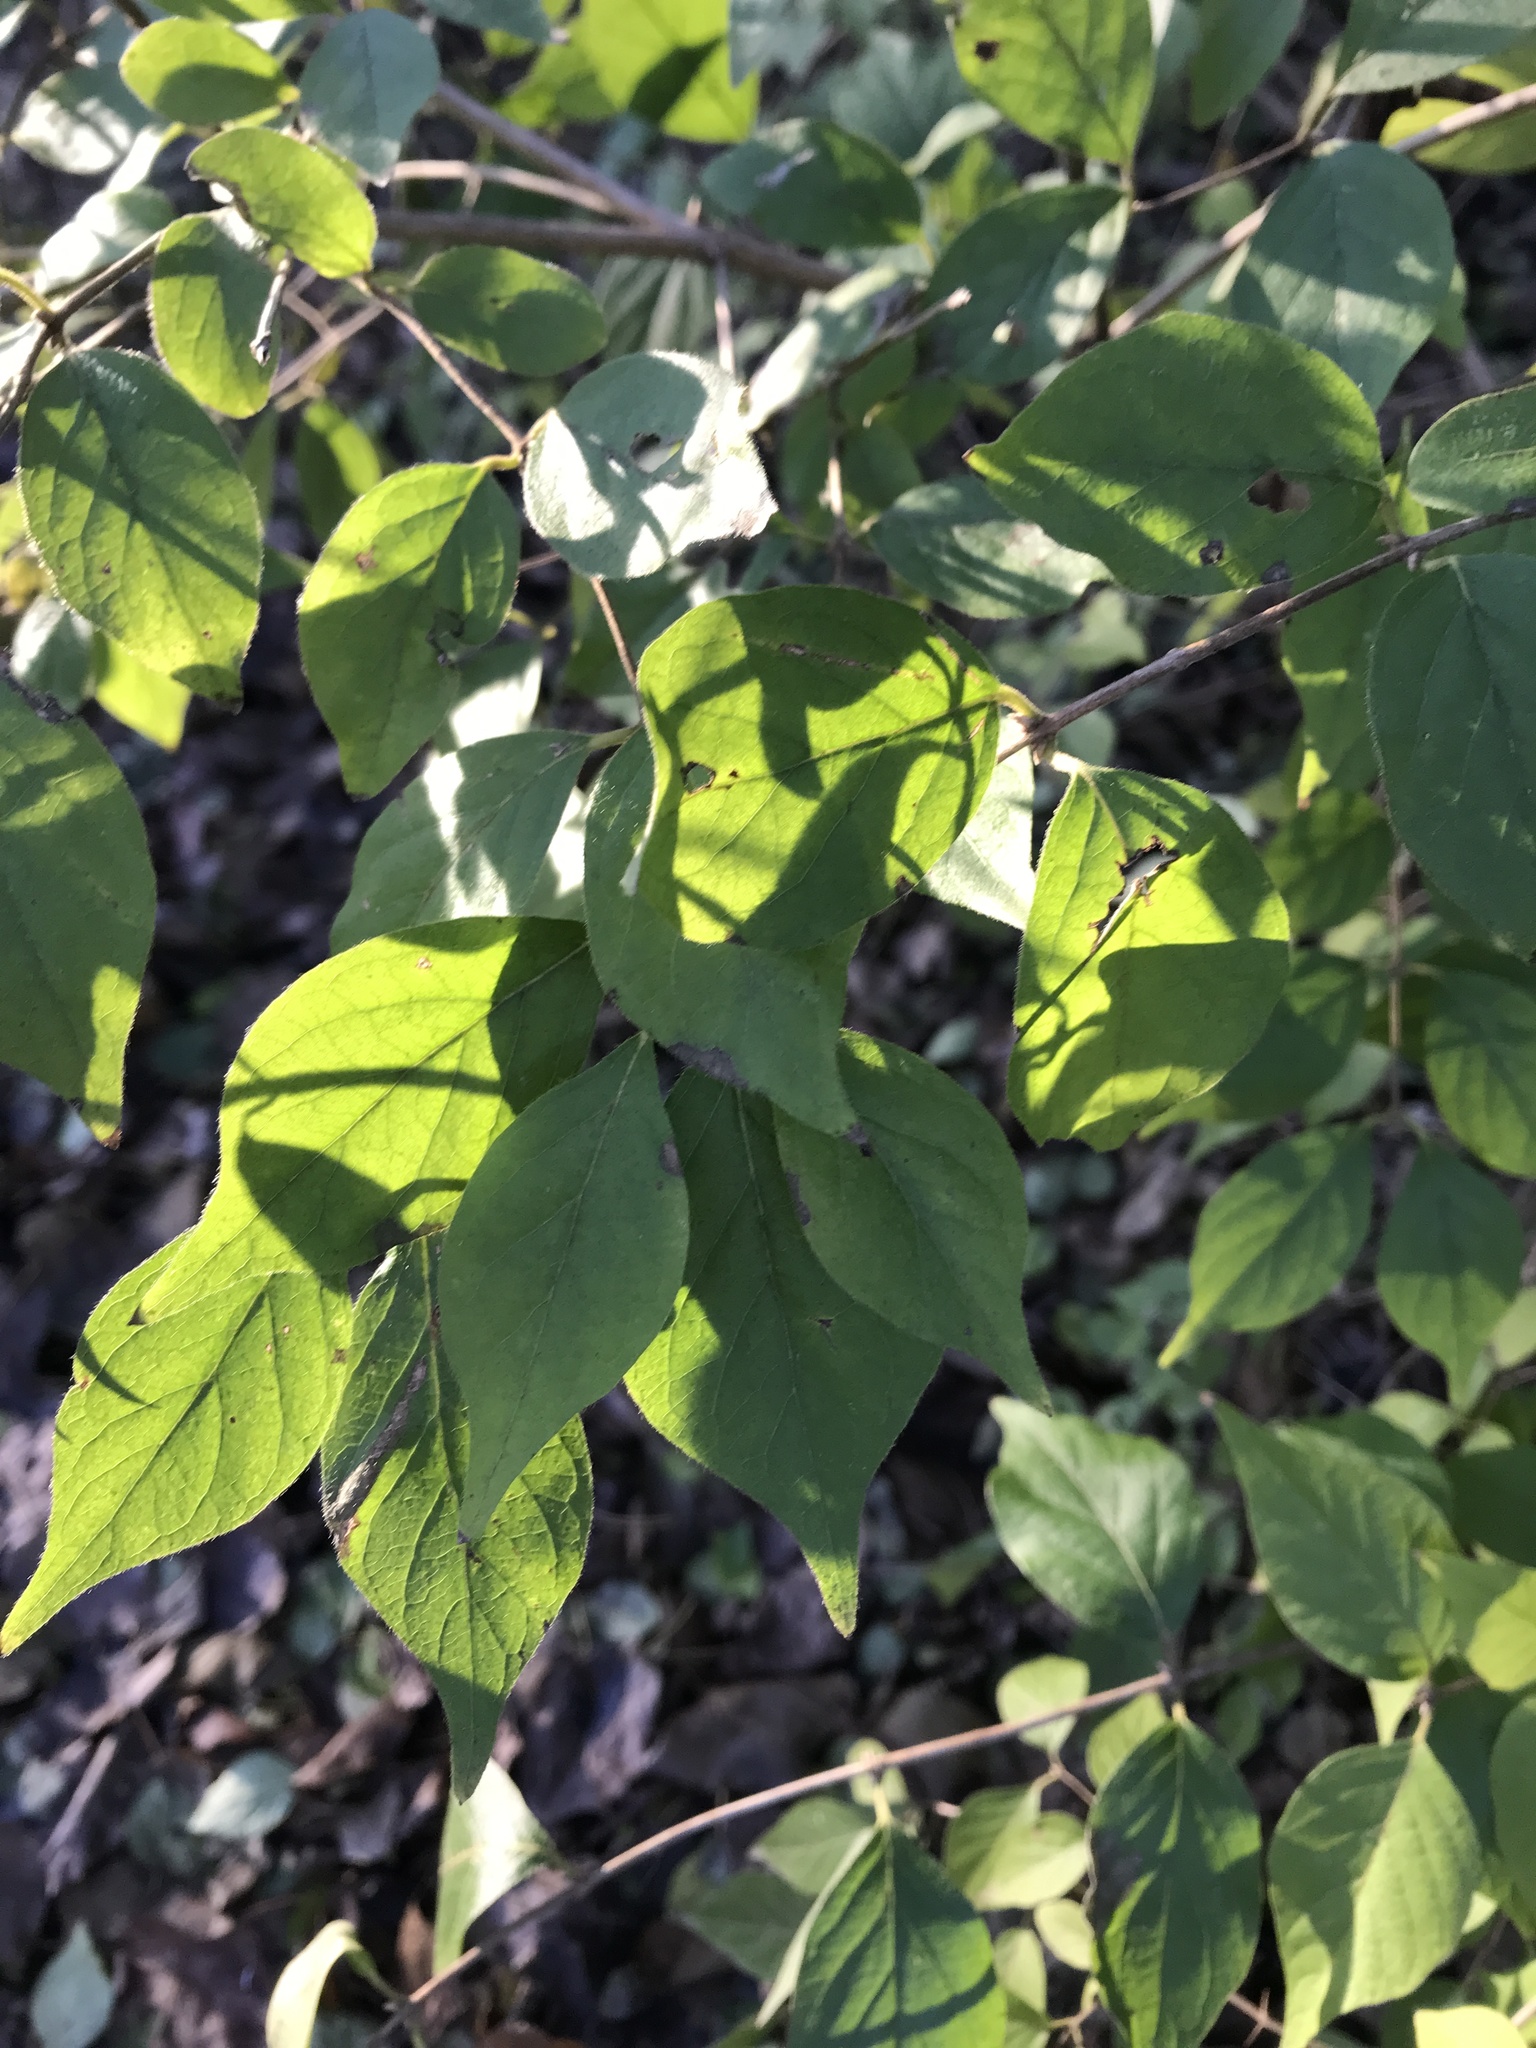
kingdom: Plantae
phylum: Tracheophyta
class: Magnoliopsida
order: Dipsacales
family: Caprifoliaceae
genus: Lonicera
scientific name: Lonicera maackii
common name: Amur honeysuckle
